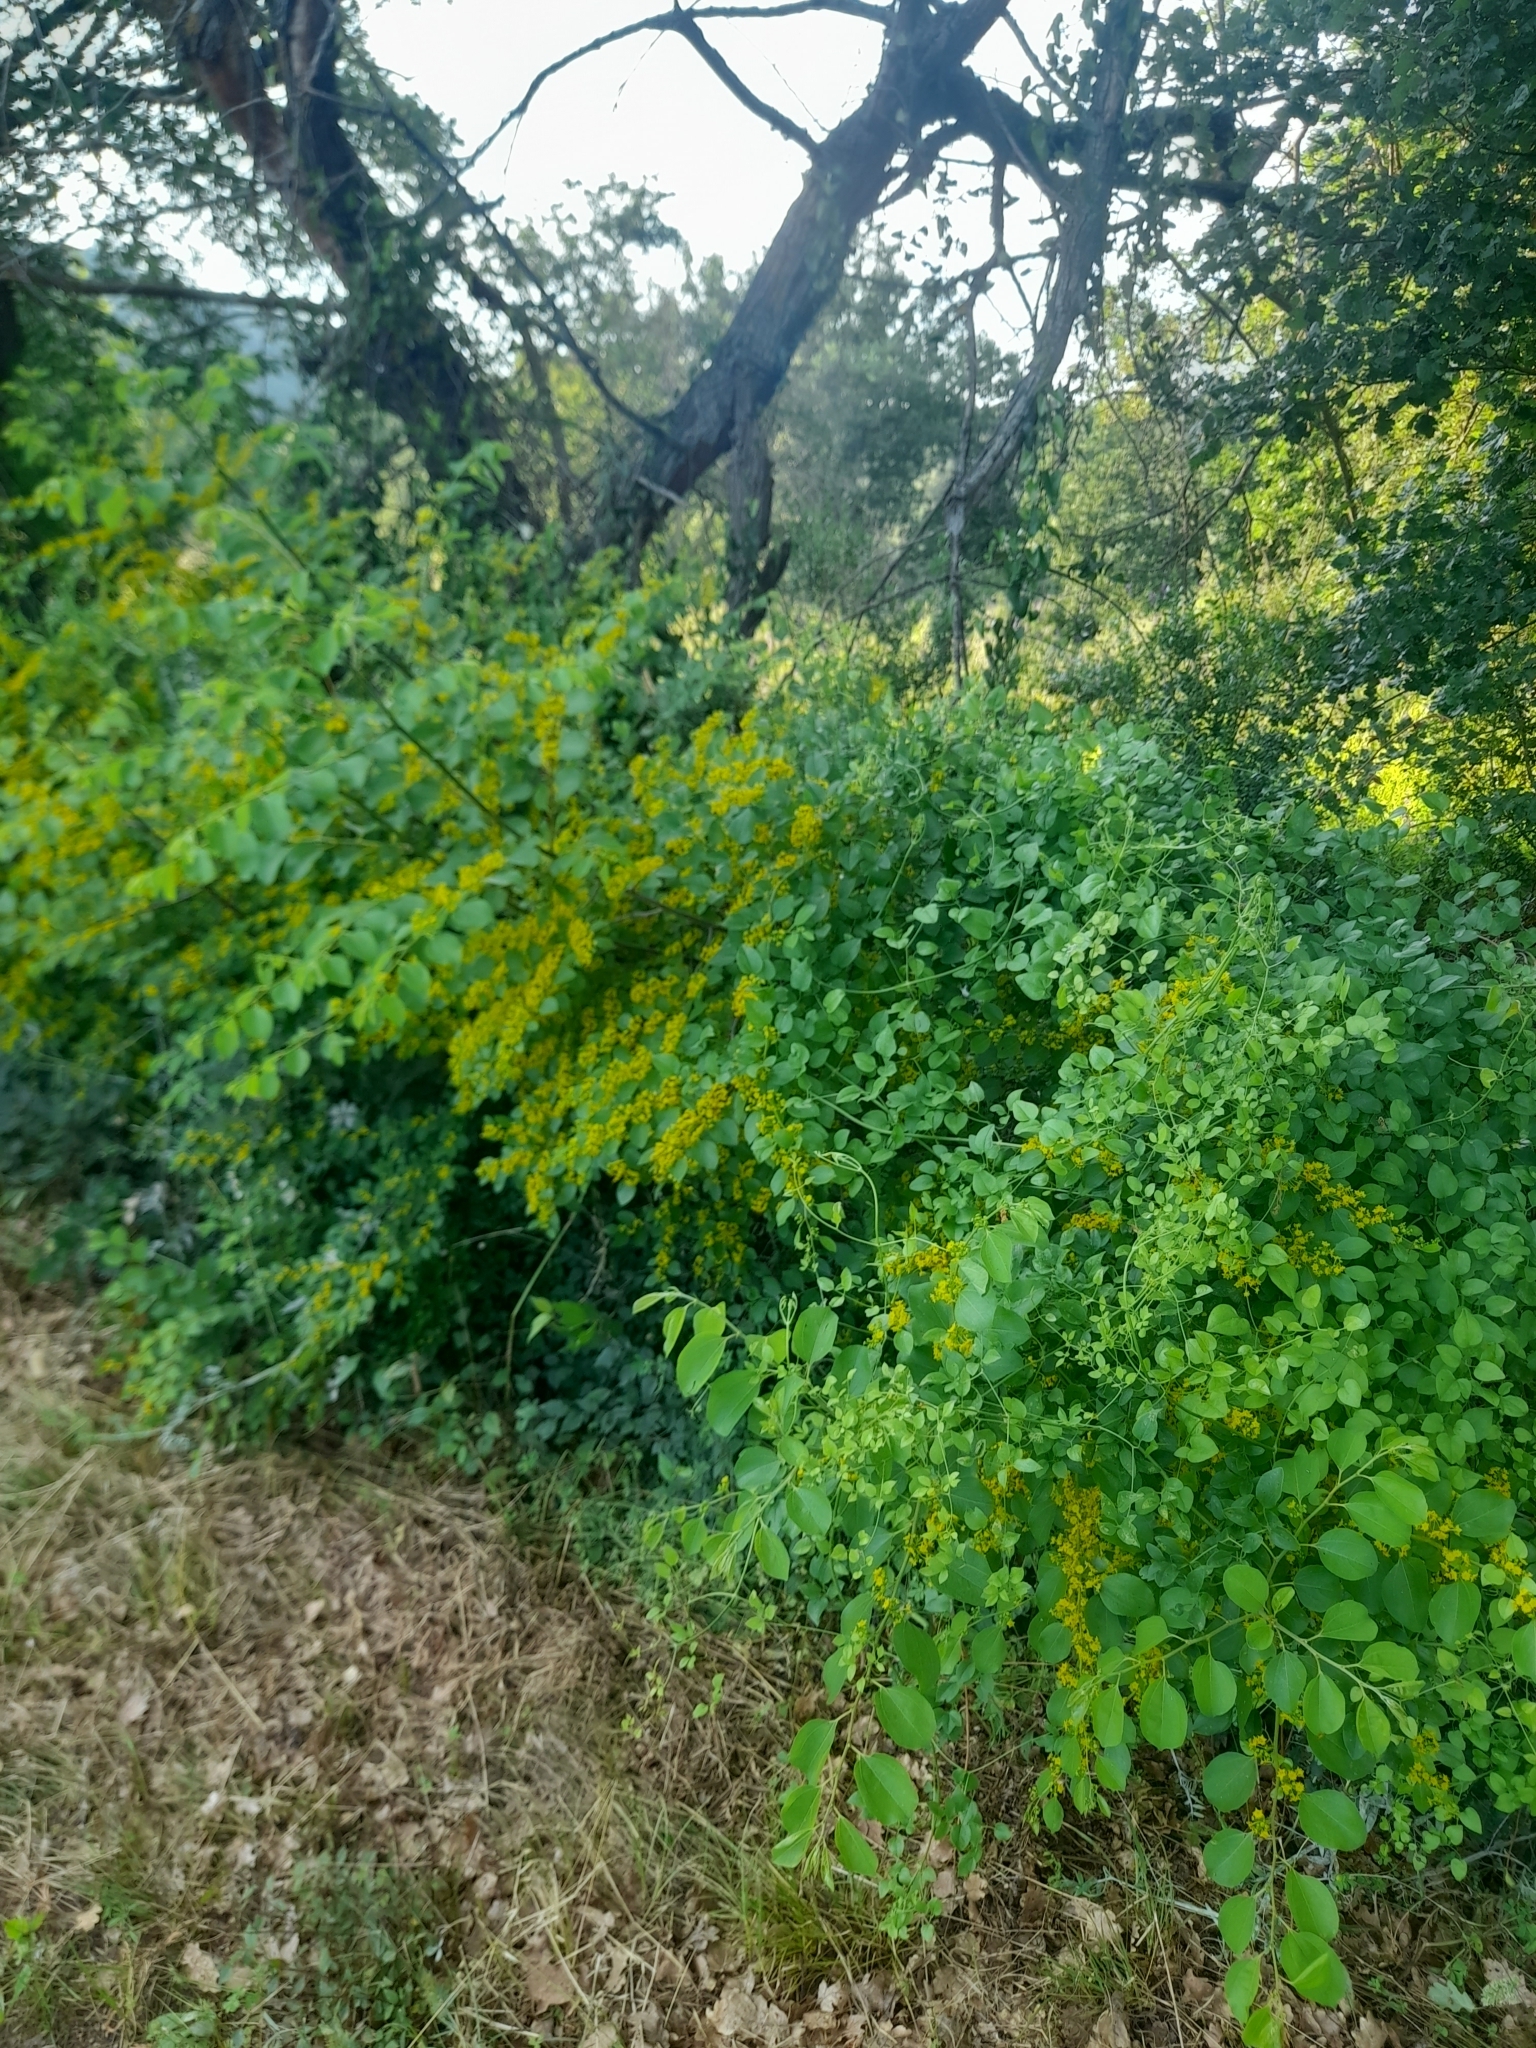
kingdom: Plantae
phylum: Tracheophyta
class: Magnoliopsida
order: Rosales
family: Rhamnaceae
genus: Paliurus
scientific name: Paliurus spina-christi
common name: Jeruselem thorn
